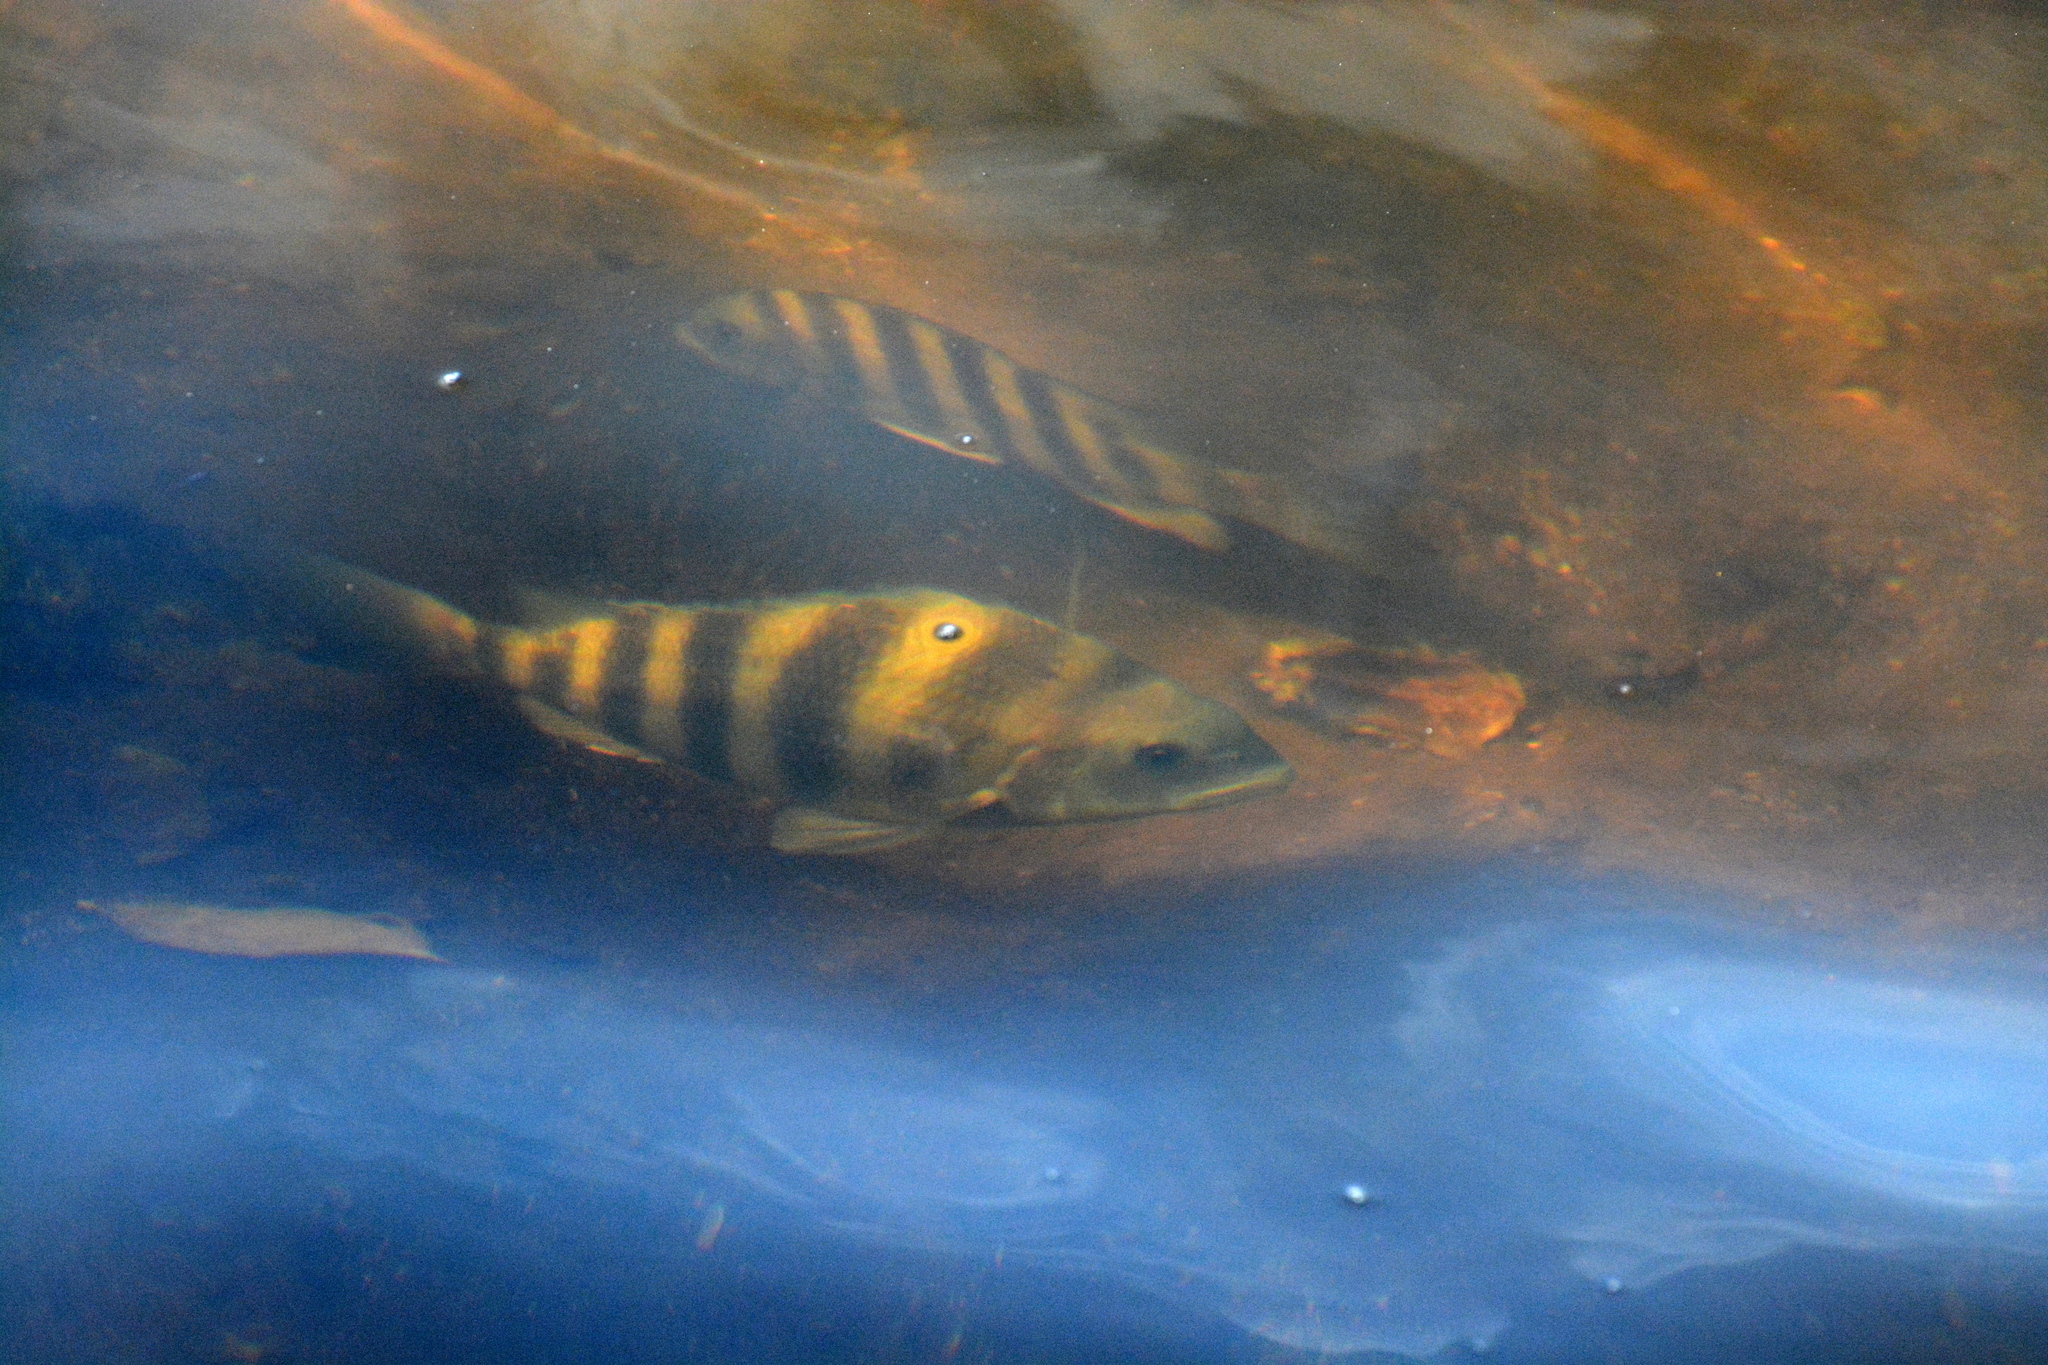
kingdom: Animalia
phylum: Chordata
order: Perciformes
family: Sparidae
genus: Archosargus
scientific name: Archosargus probatocephalus
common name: Sheepshead
